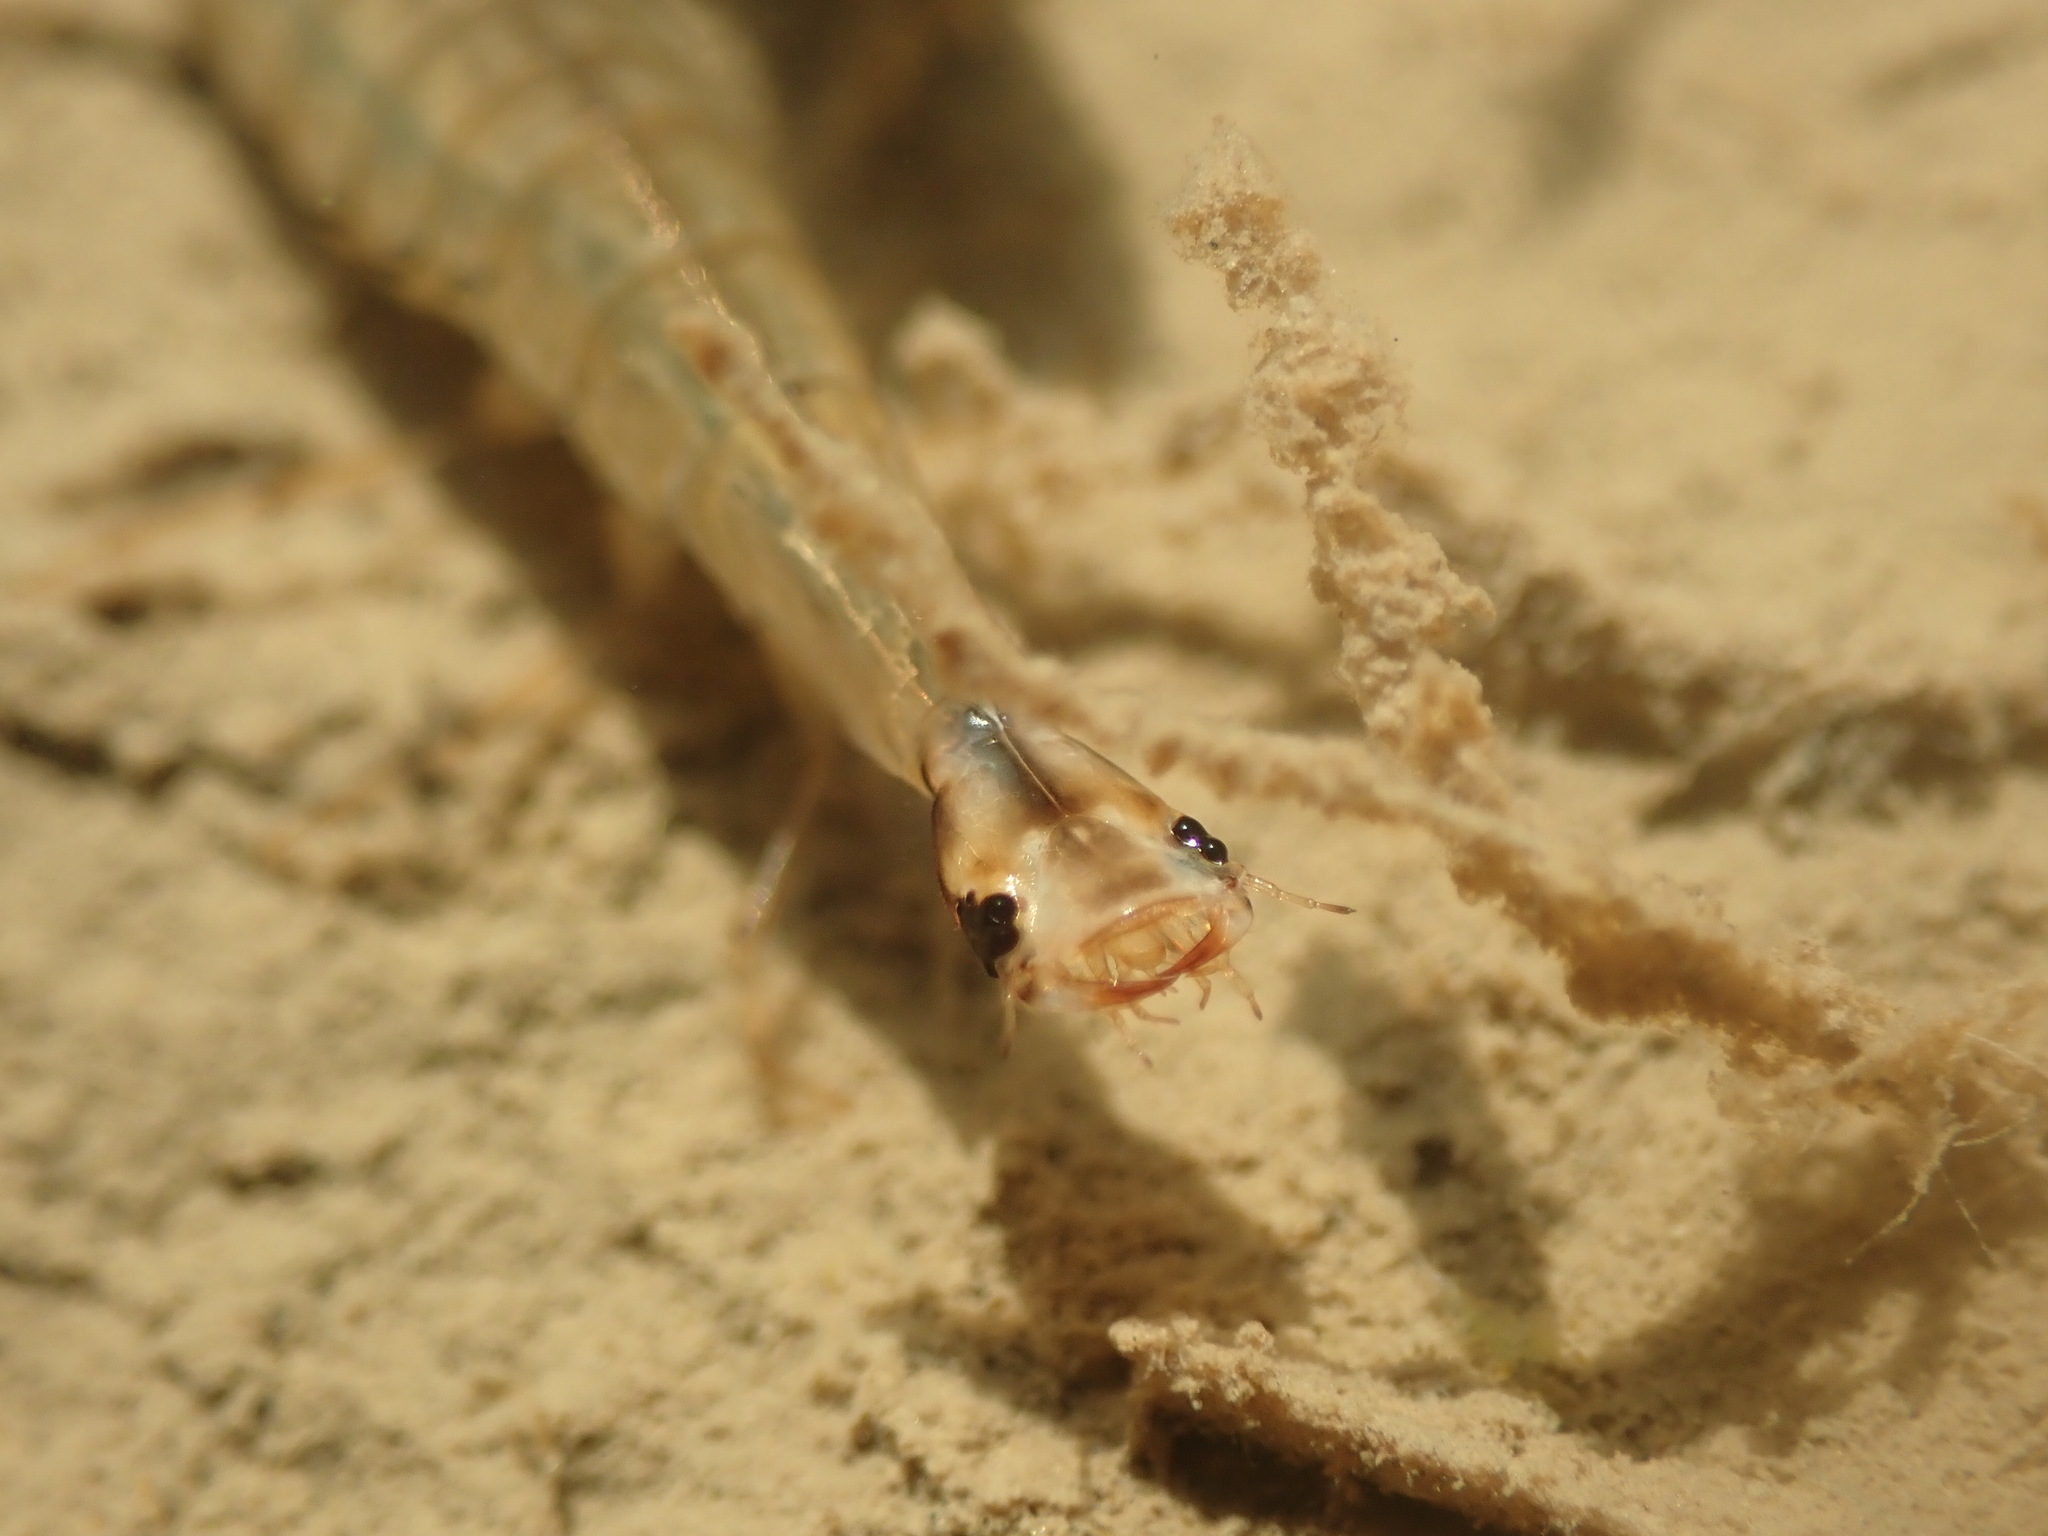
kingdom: Animalia
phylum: Arthropoda
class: Insecta
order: Coleoptera
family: Dytiscidae
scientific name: Dytiscidae
